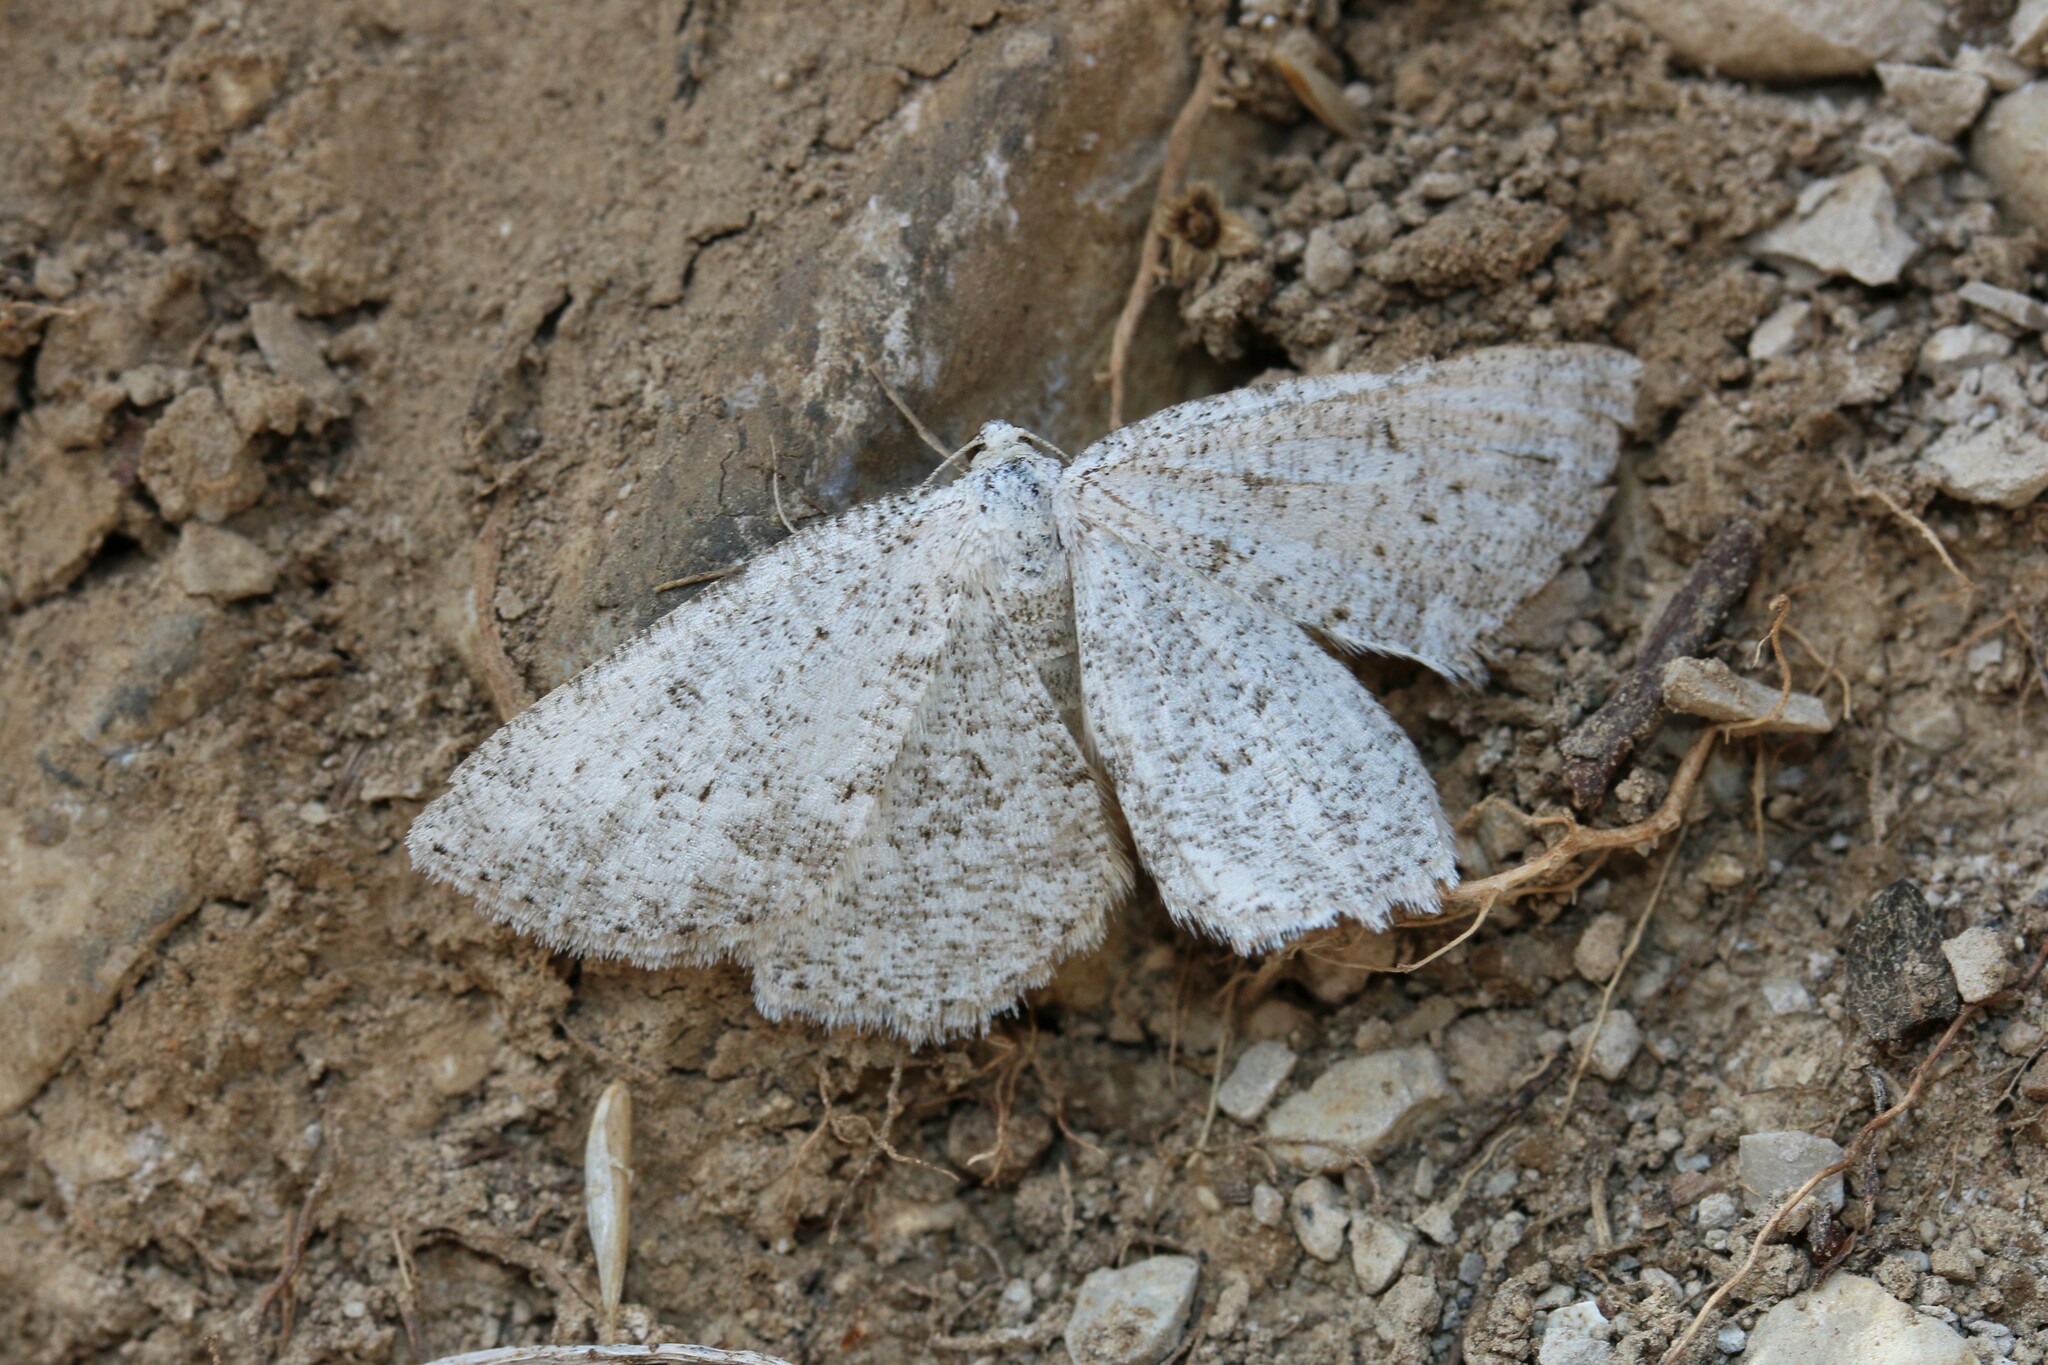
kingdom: Animalia
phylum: Arthropoda
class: Insecta
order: Lepidoptera
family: Geometridae
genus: Elophos
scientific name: Elophos Yezognophos dilucidaria
